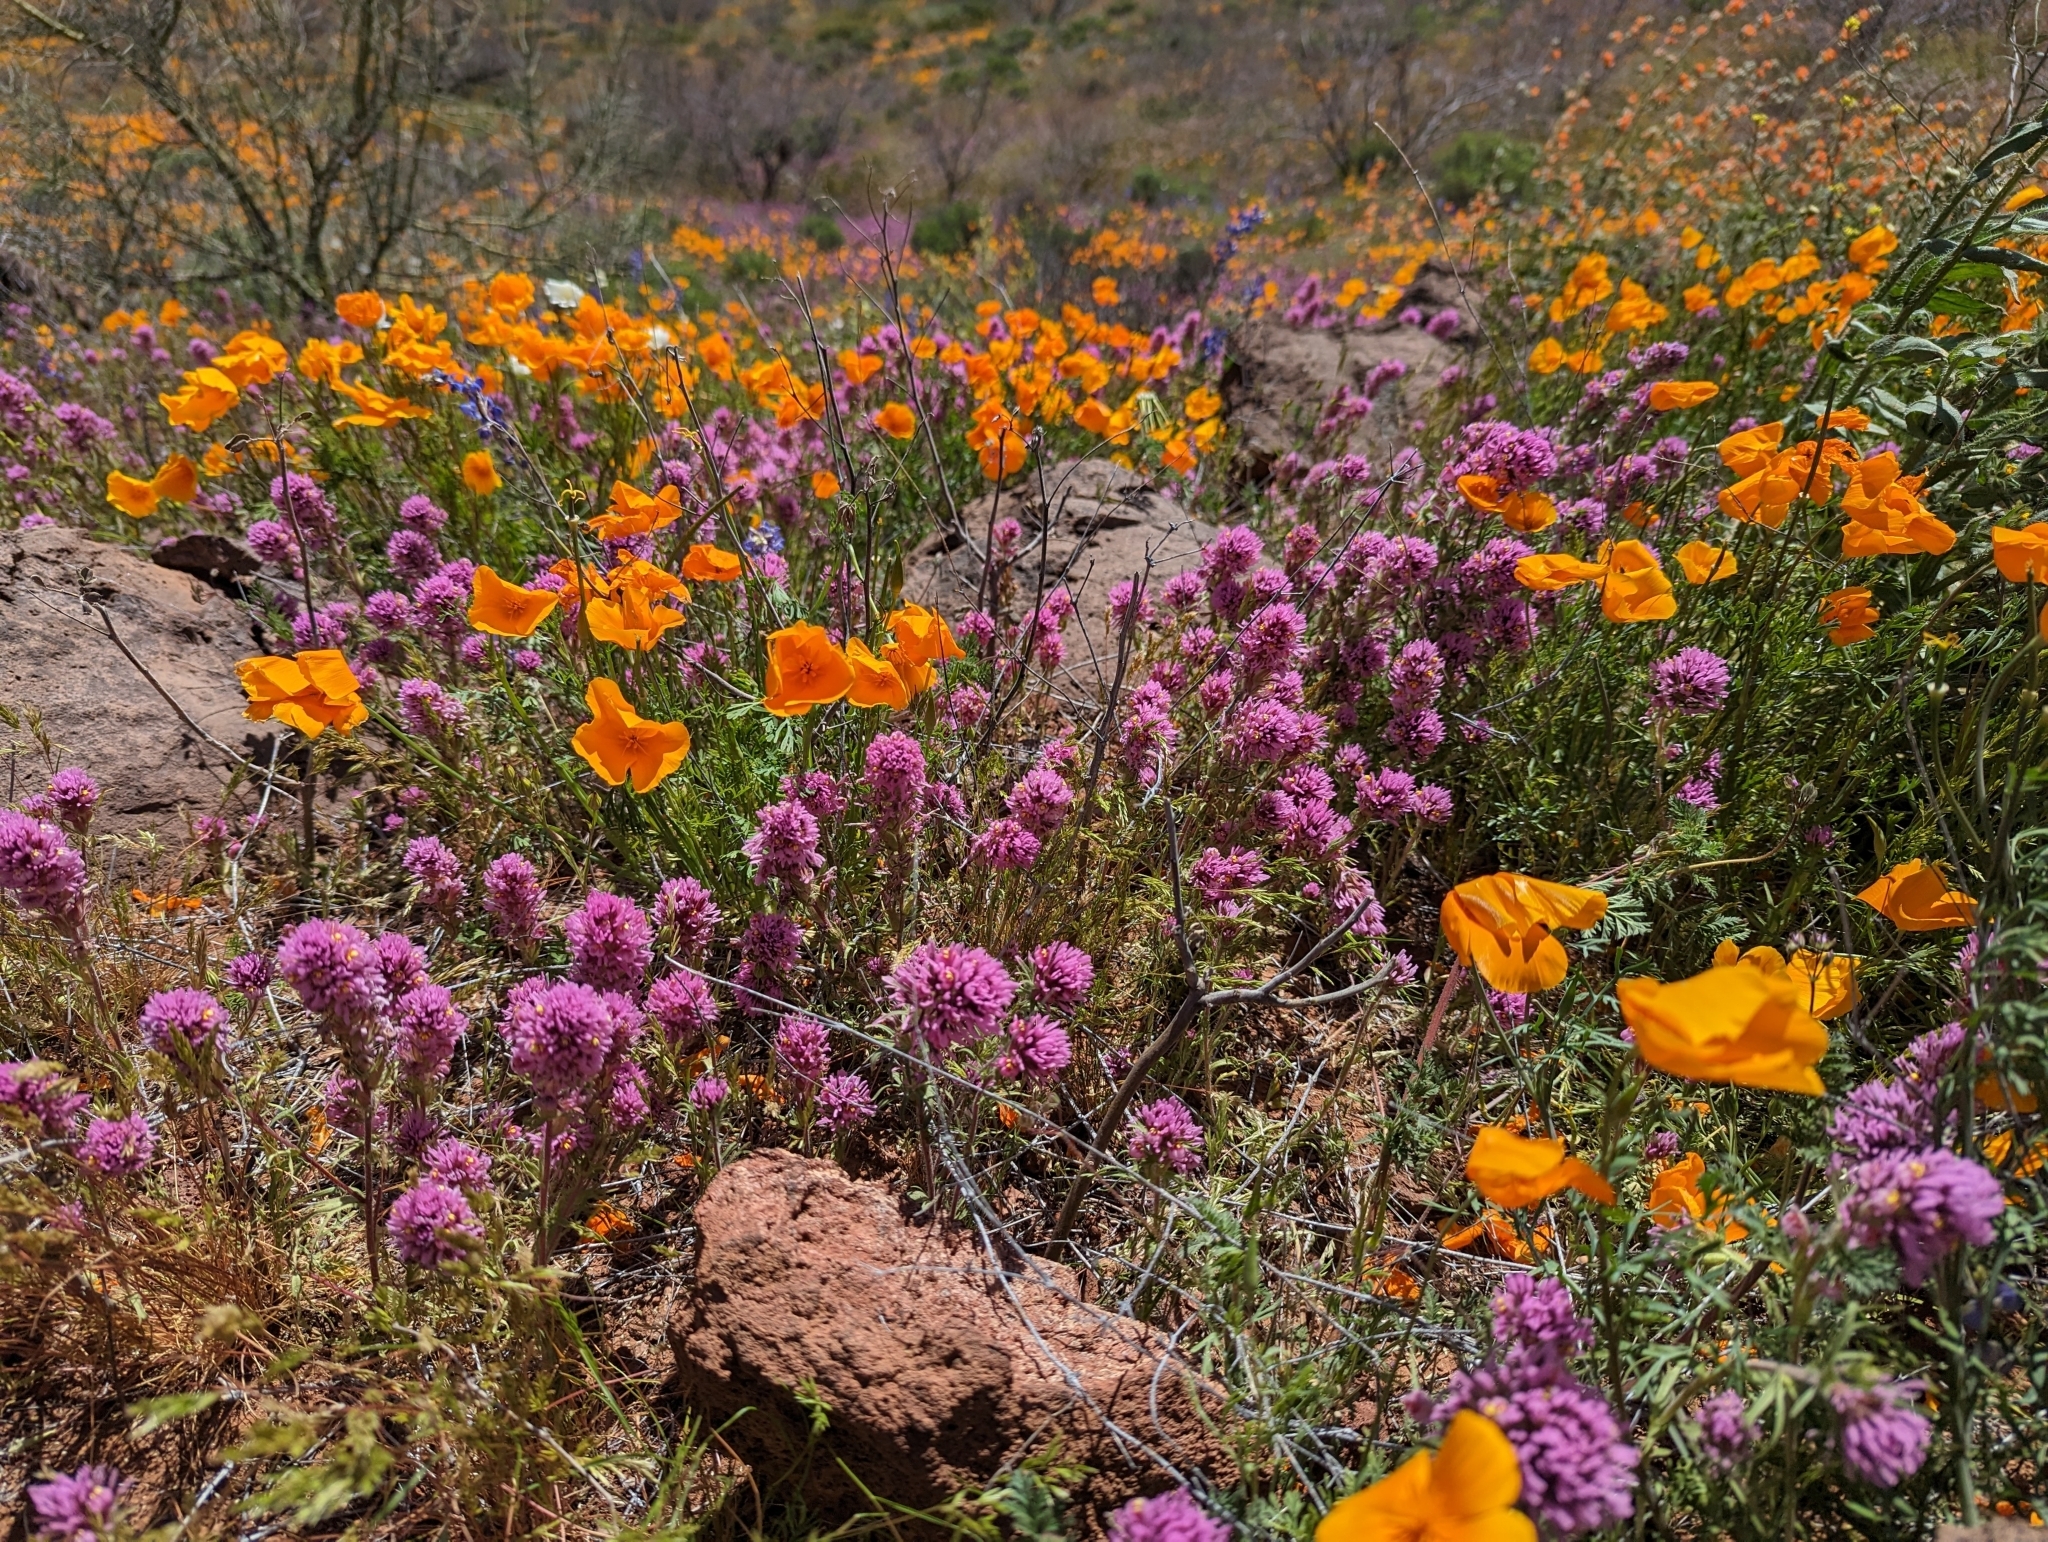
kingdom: Plantae
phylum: Tracheophyta
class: Magnoliopsida
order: Lamiales
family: Orobanchaceae
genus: Castilleja
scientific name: Castilleja exserta
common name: Purple owl-clover
